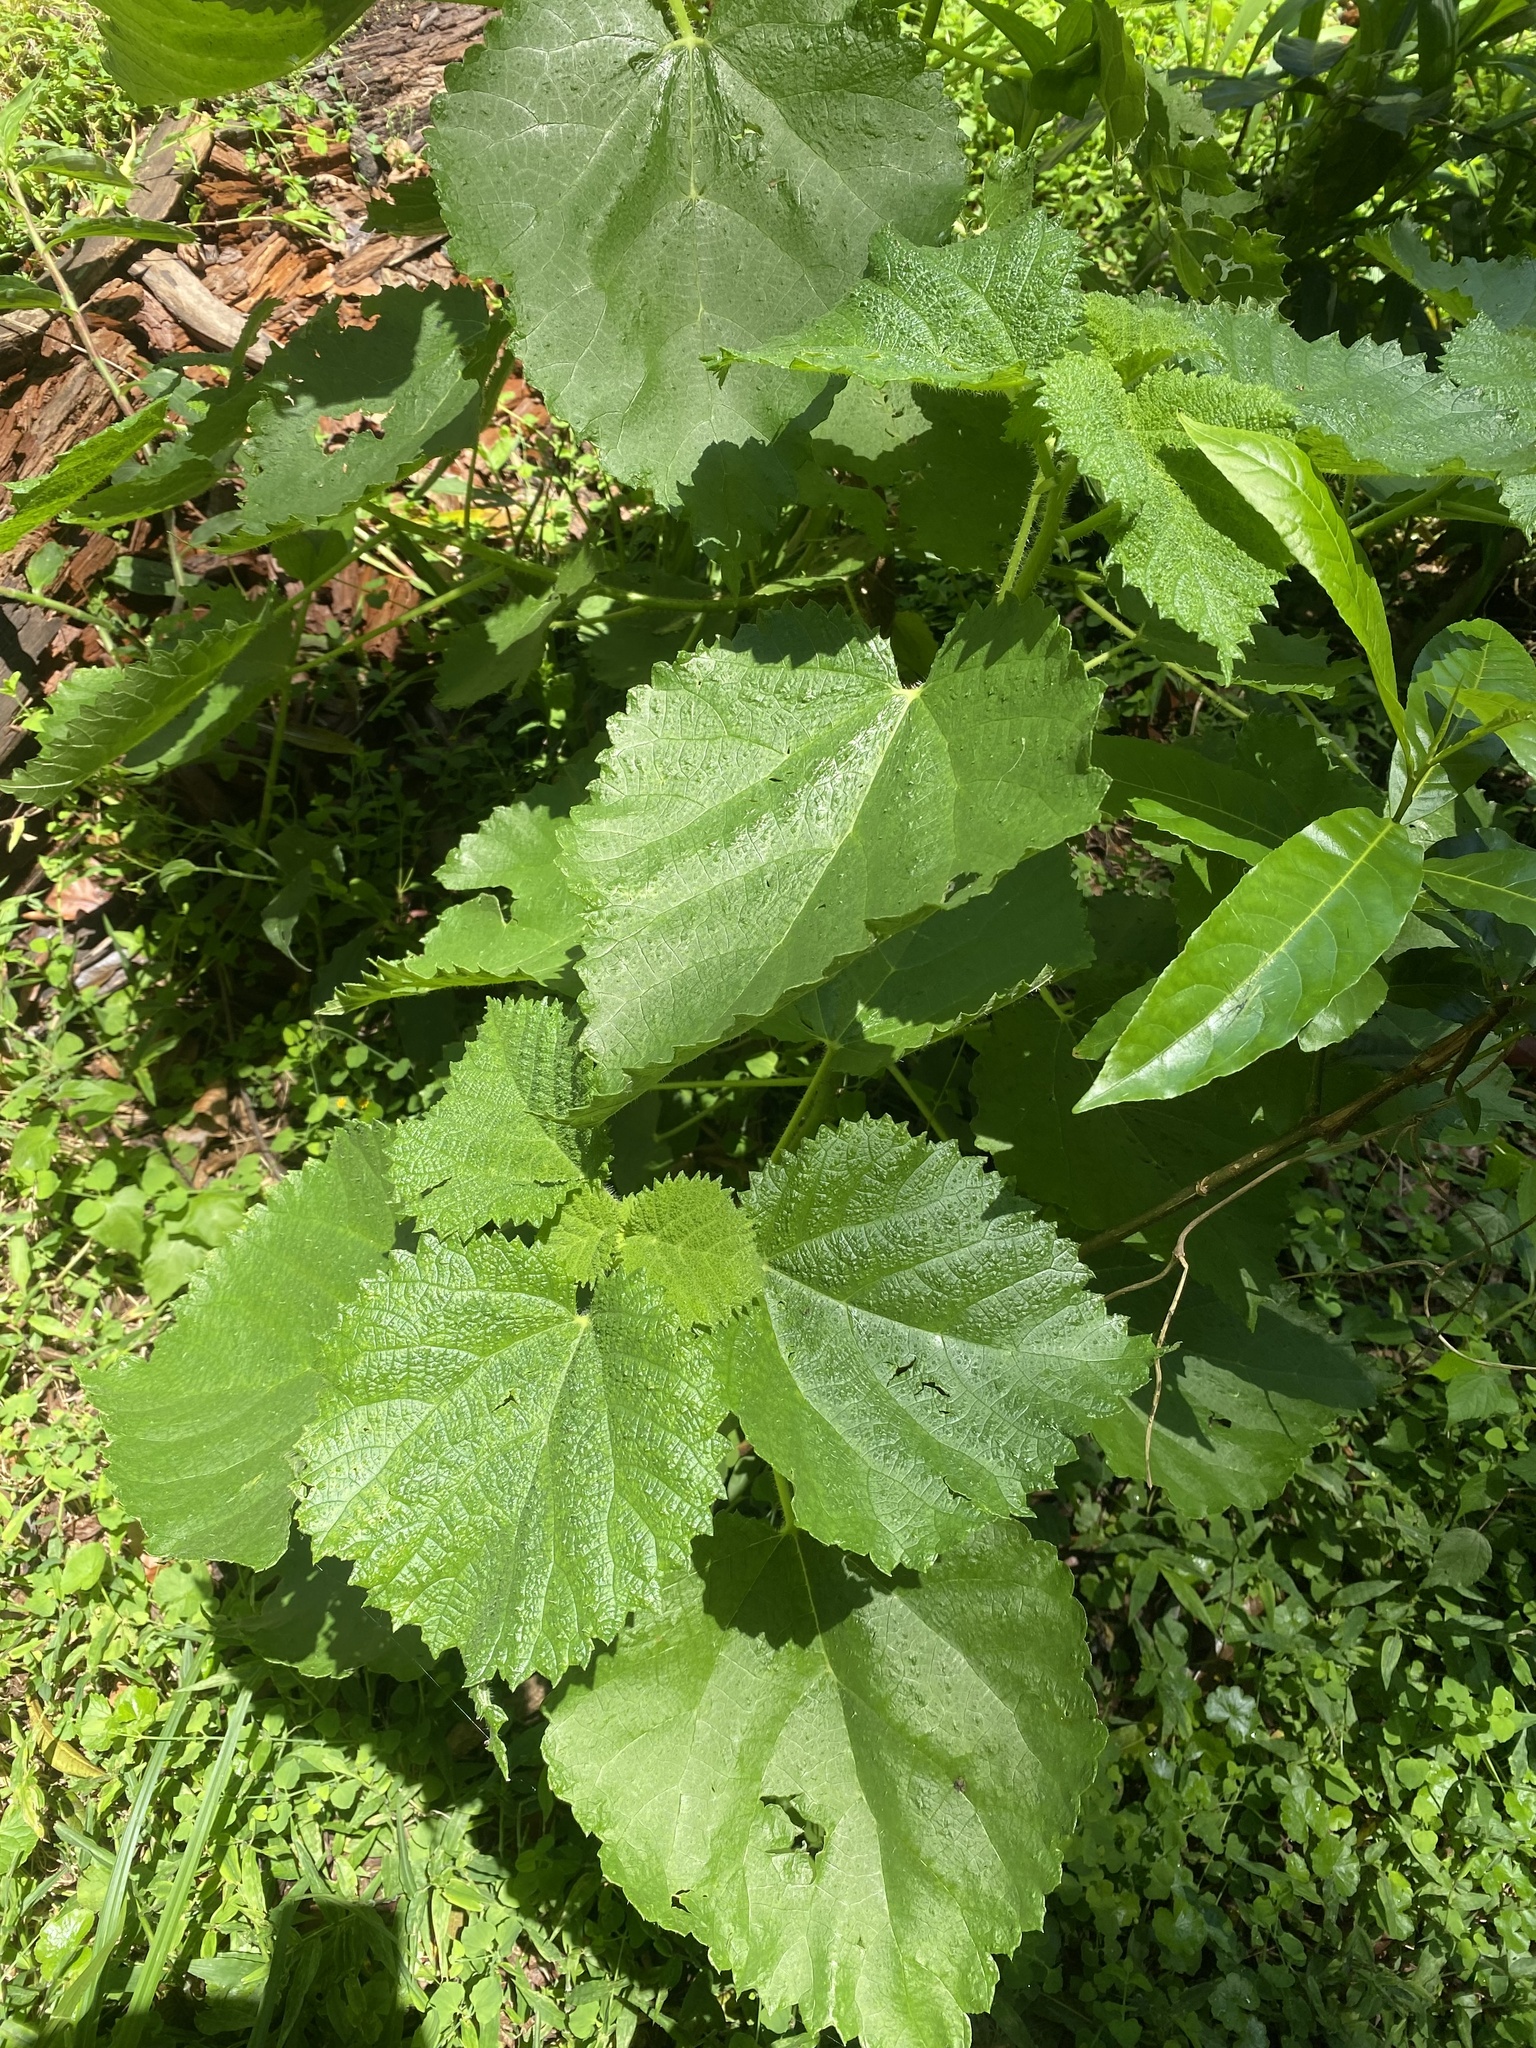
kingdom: Plantae
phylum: Tracheophyta
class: Magnoliopsida
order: Rosales
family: Urticaceae
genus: Obetia
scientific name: Obetia tenax
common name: Rock tree nettle
